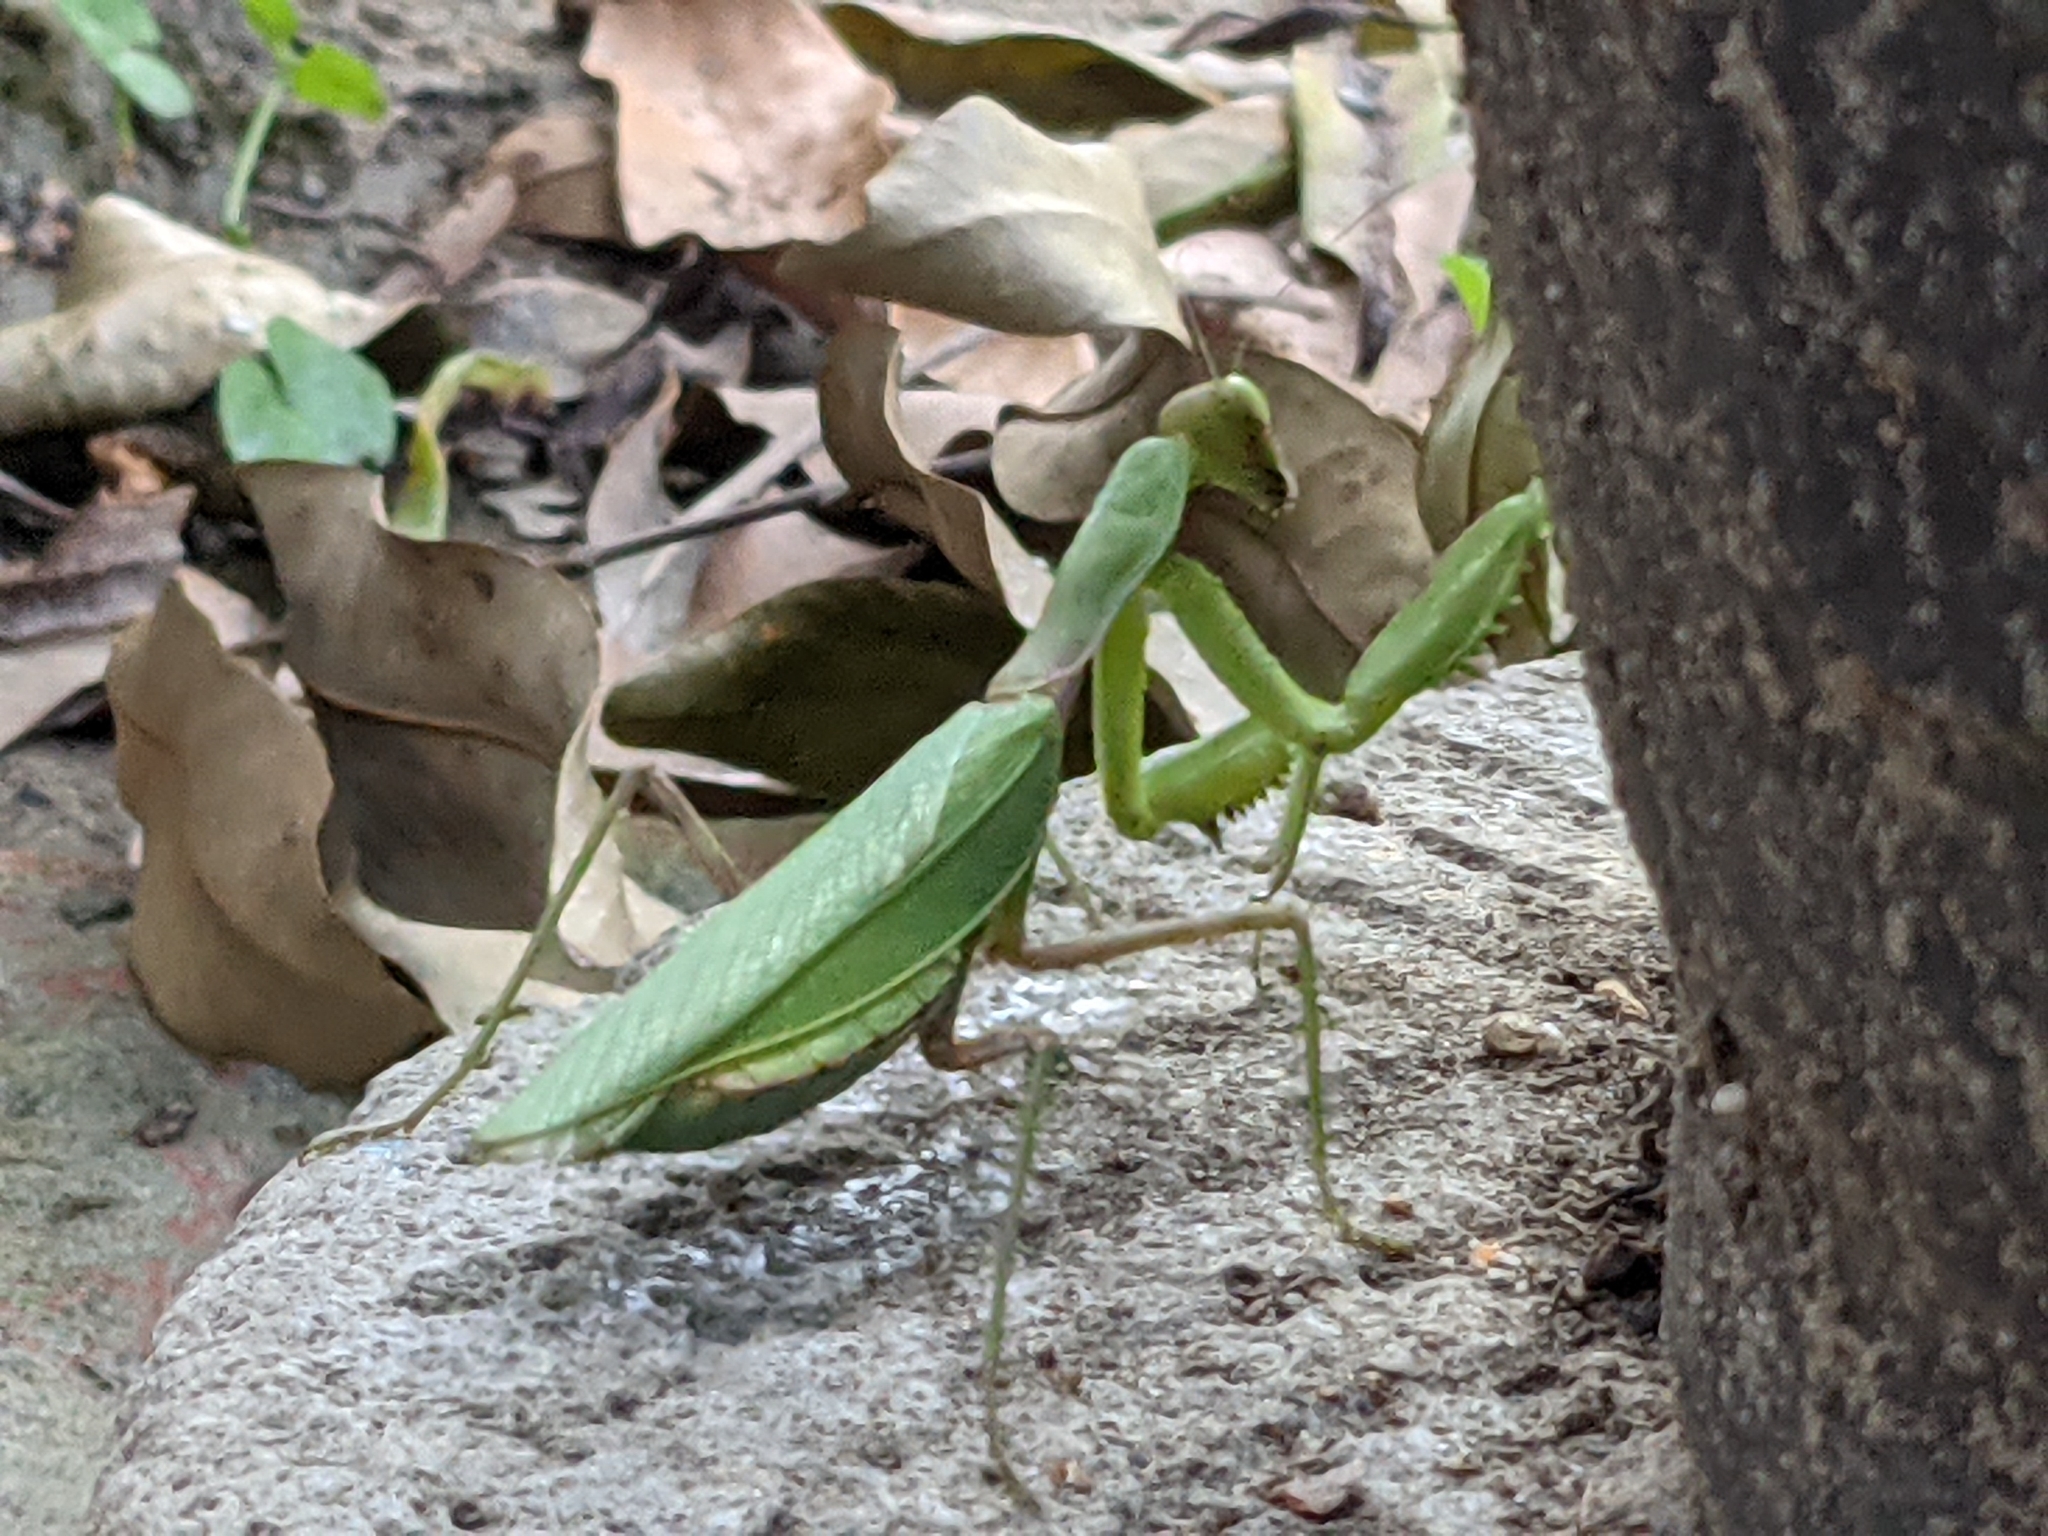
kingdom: Animalia
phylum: Arthropoda
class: Insecta
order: Mantodea
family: Mantidae
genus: Hierodula
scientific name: Hierodula patellifera
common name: Asian mantis
